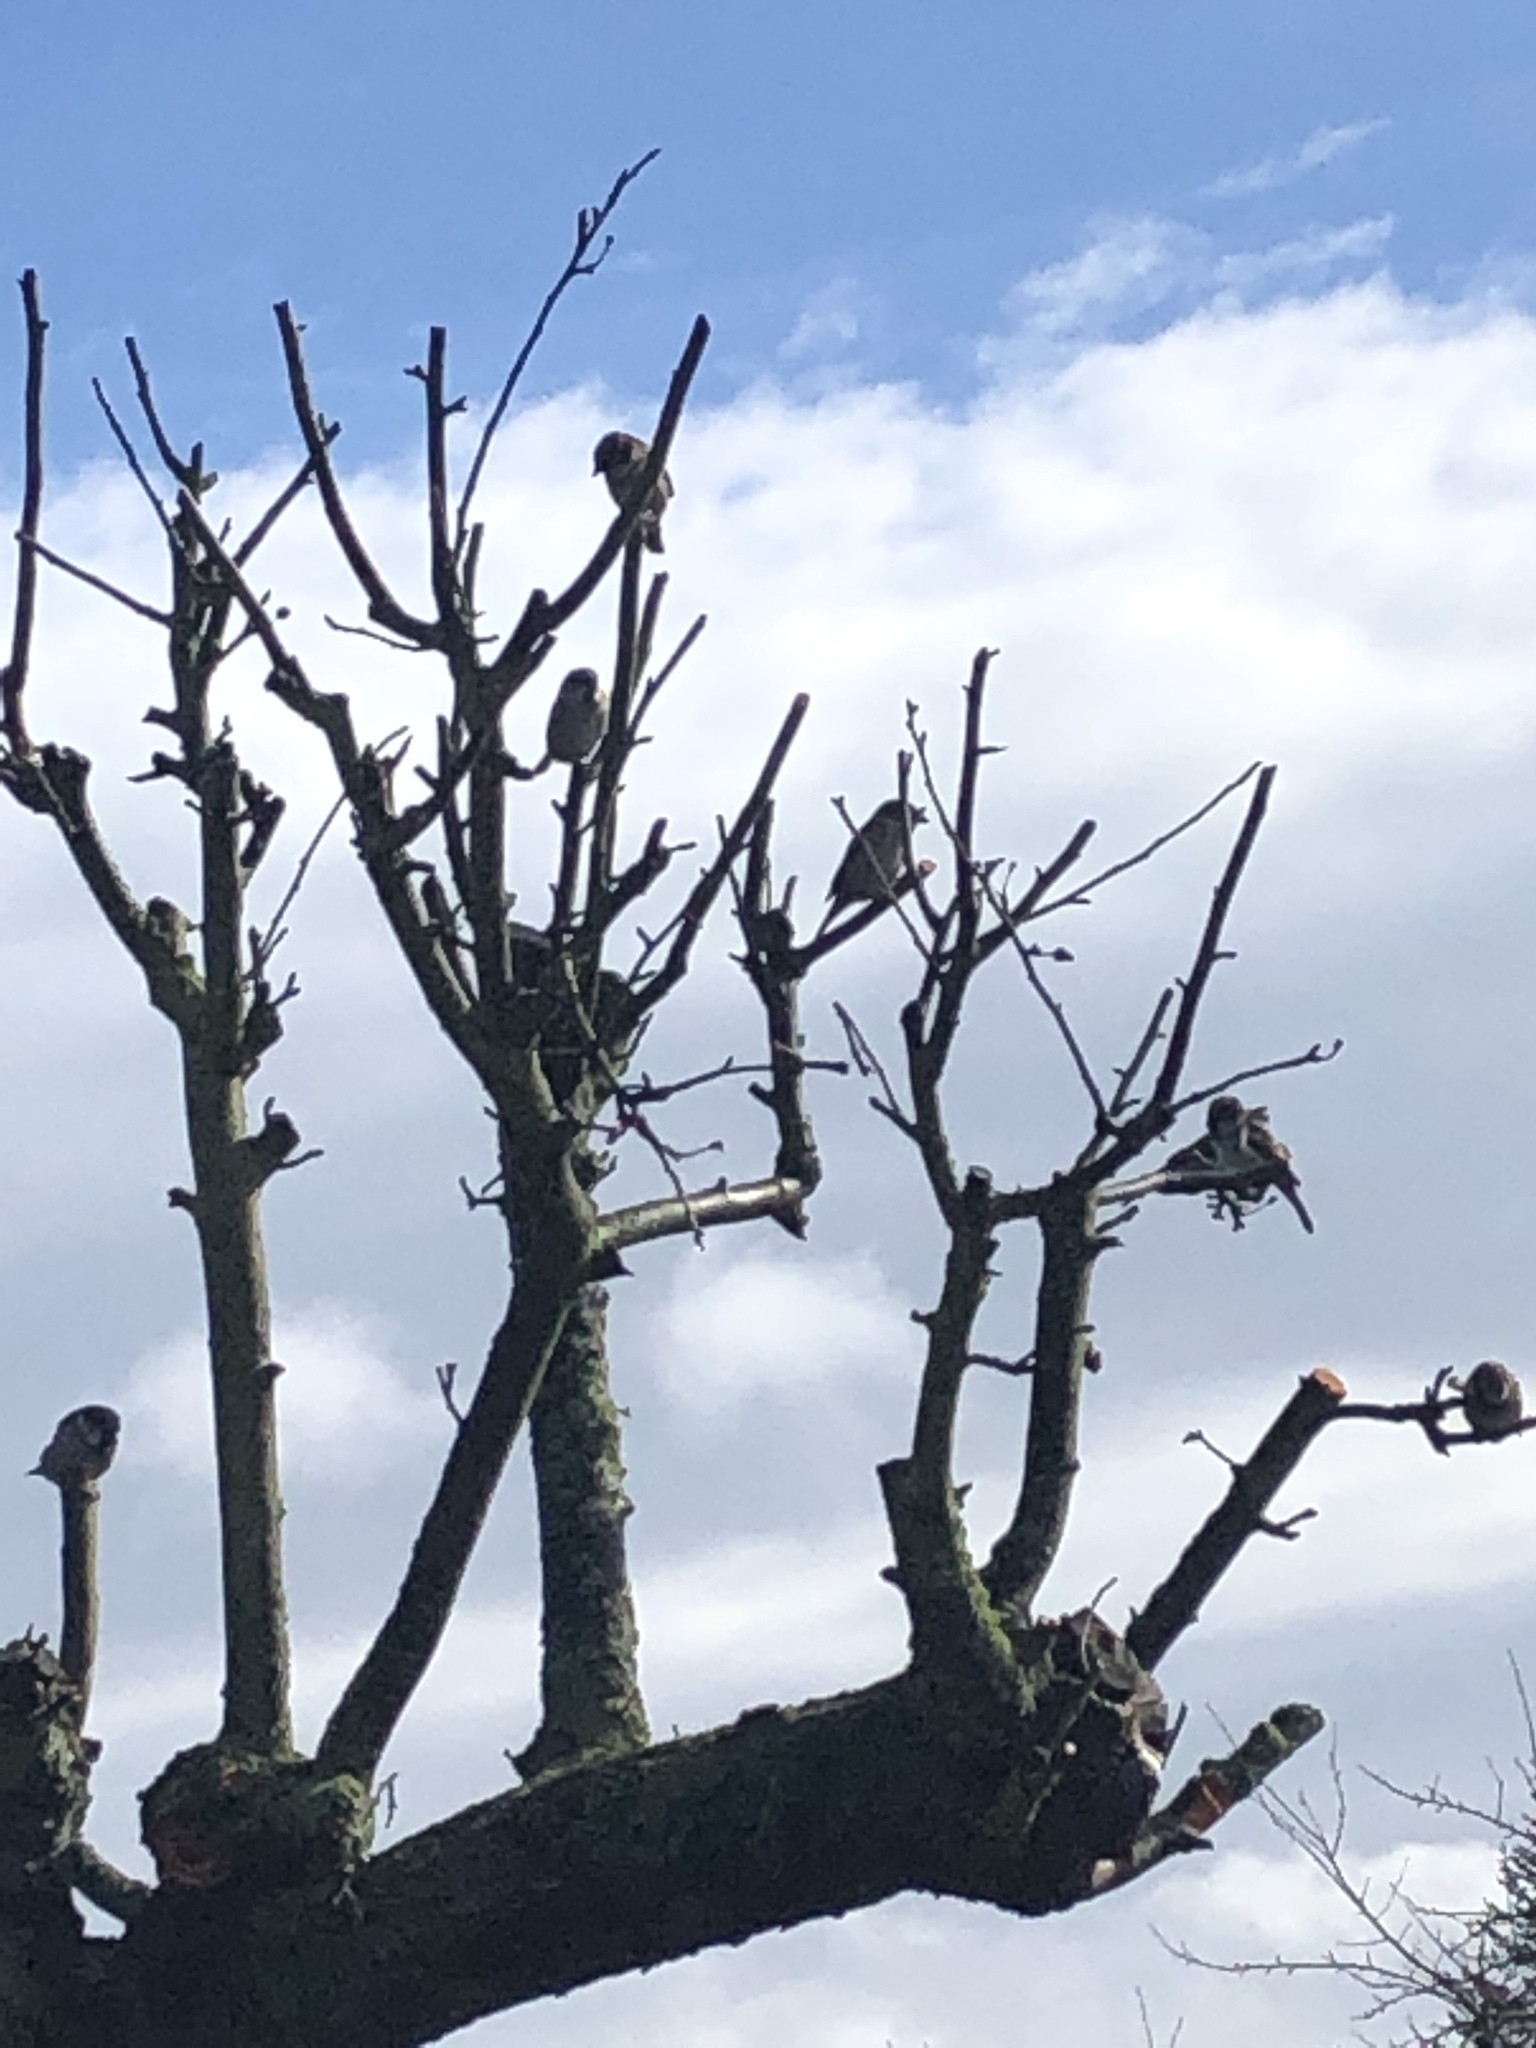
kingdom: Animalia
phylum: Chordata
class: Aves
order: Passeriformes
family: Passeridae
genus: Passer
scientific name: Passer domesticus
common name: House sparrow
